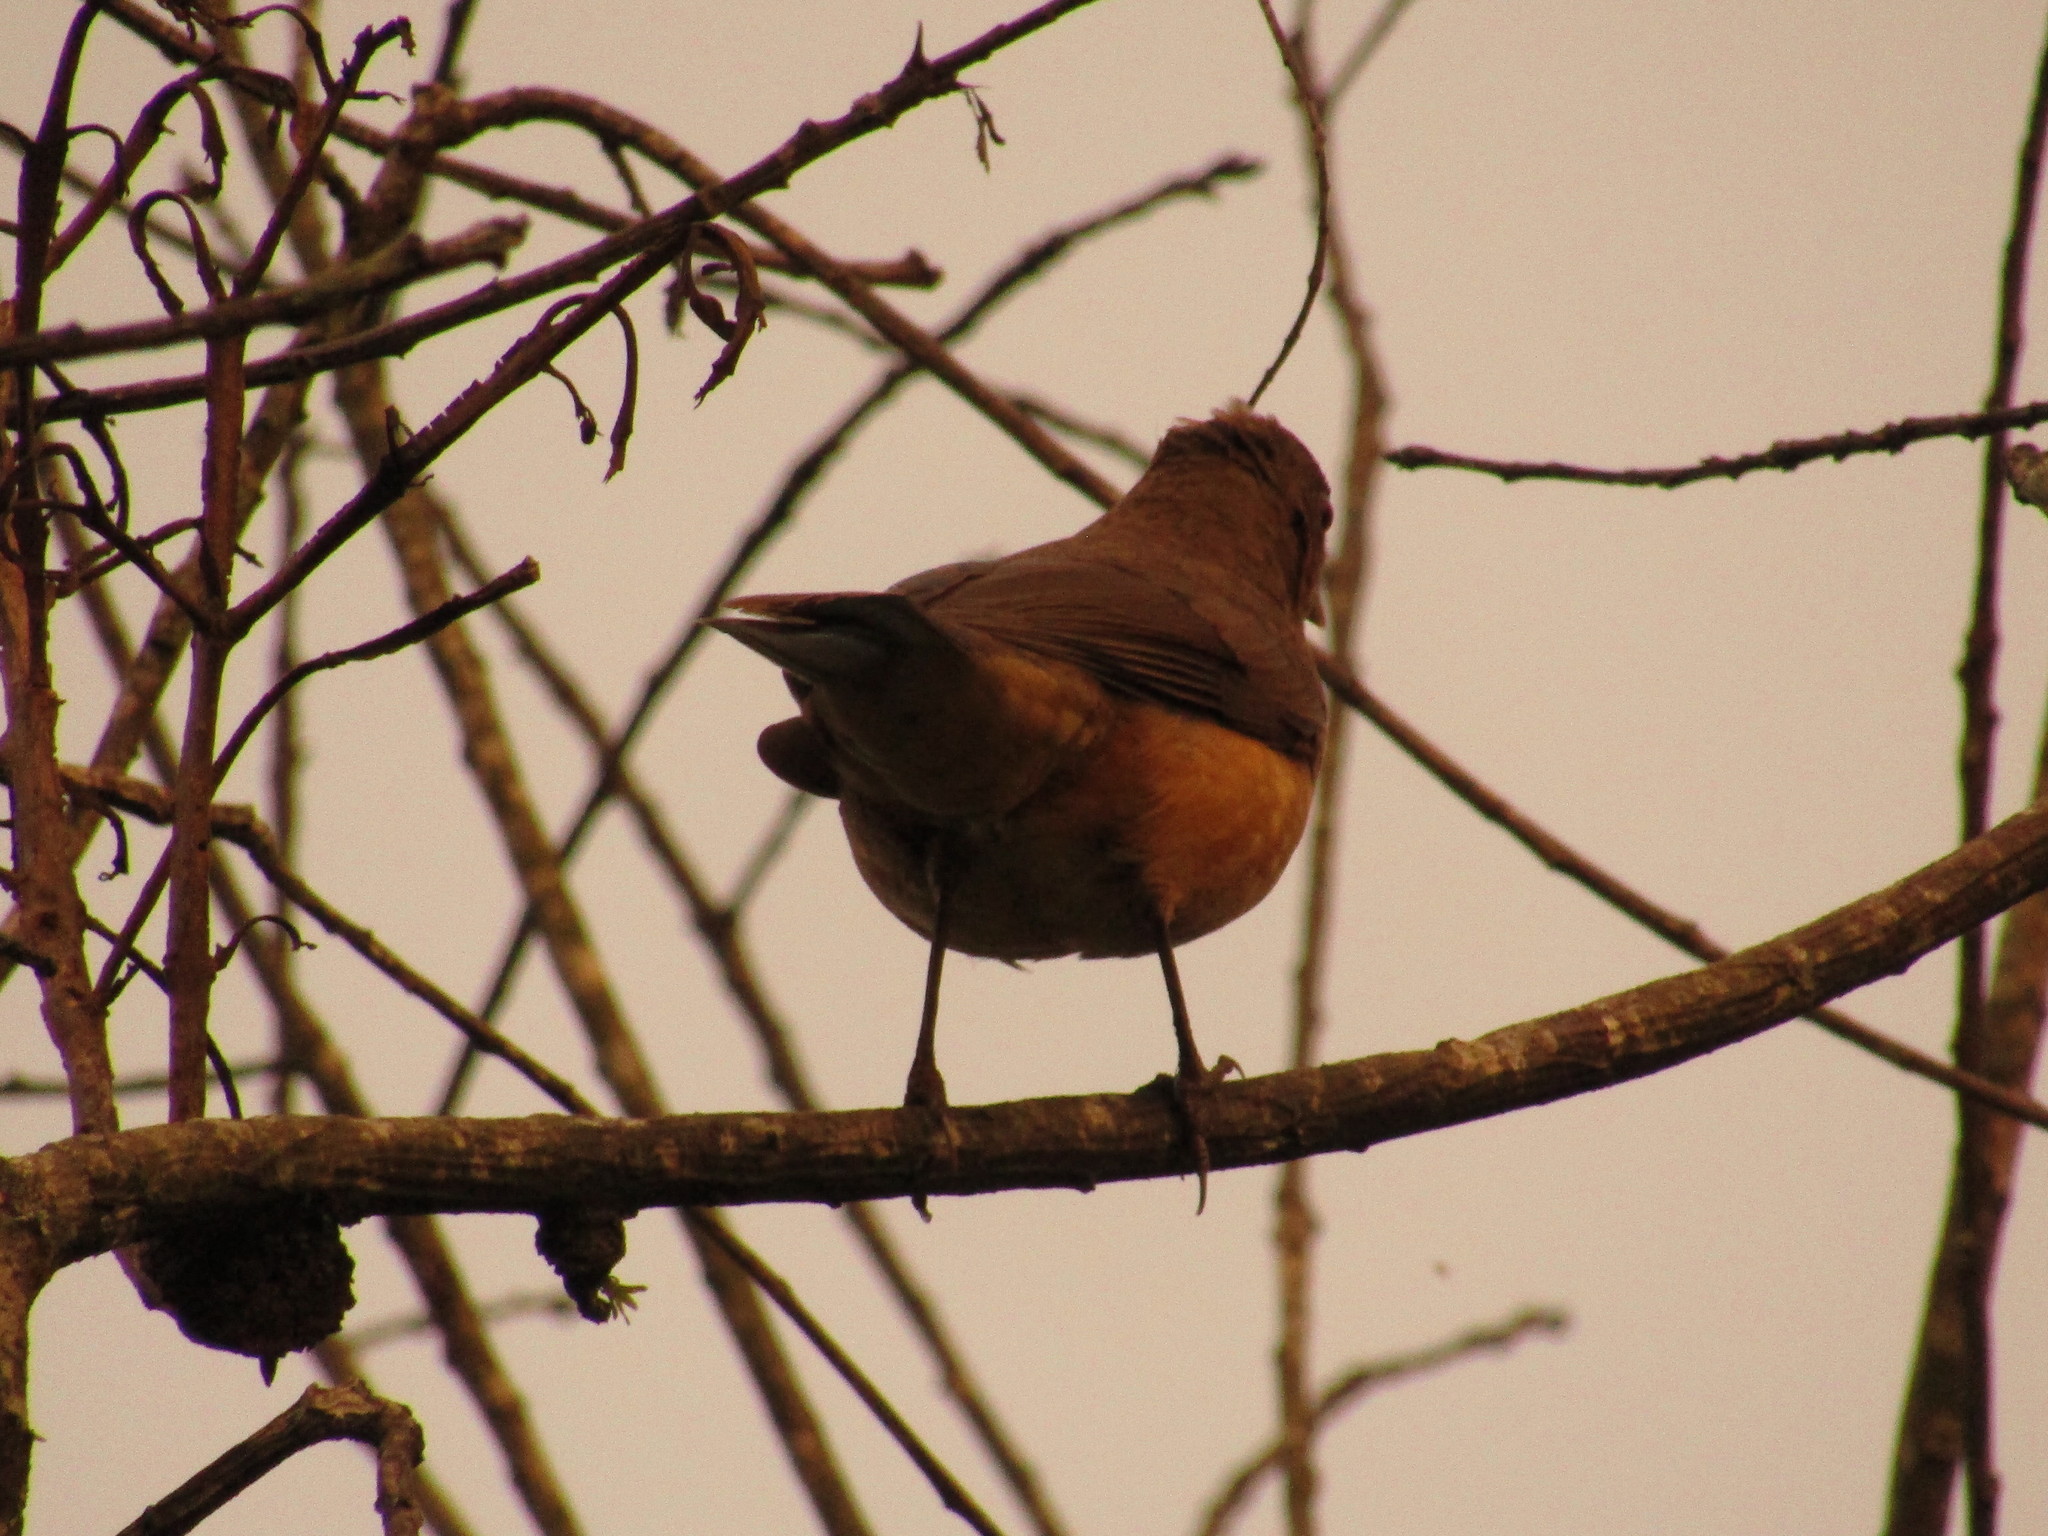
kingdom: Animalia
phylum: Chordata
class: Aves
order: Passeriformes
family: Turdidae
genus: Turdus
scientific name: Turdus grayi
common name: Clay-colored thrush
